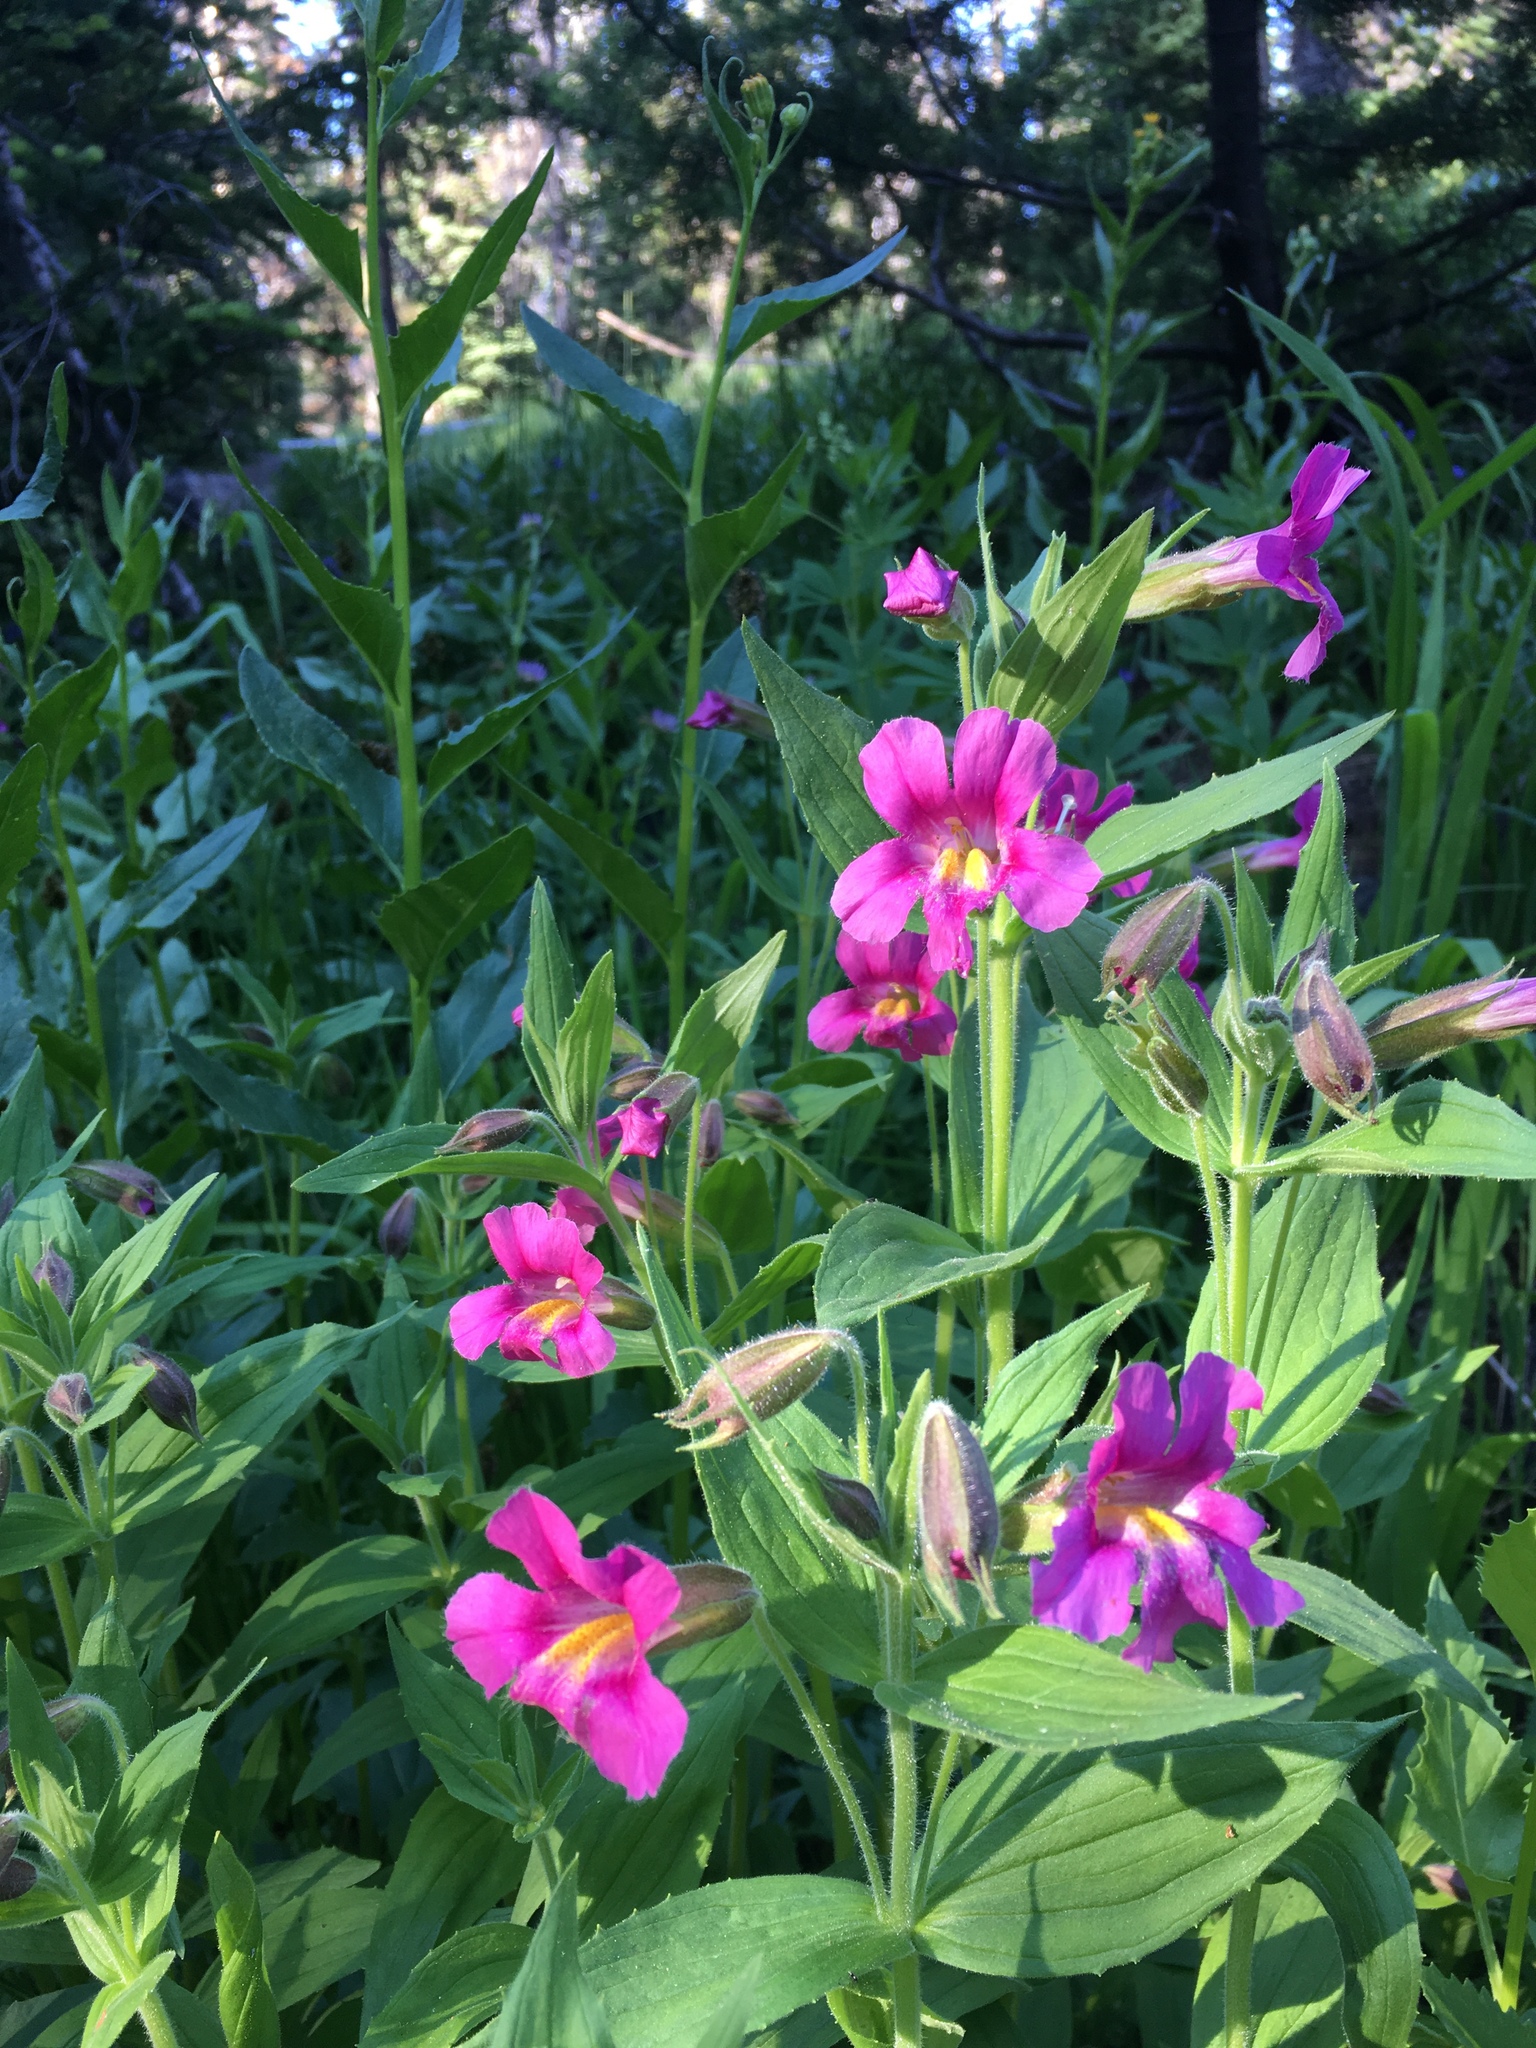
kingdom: Plantae
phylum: Tracheophyta
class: Magnoliopsida
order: Lamiales
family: Phrymaceae
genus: Erythranthe
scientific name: Erythranthe lewisii
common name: Lewis's monkey-flower
